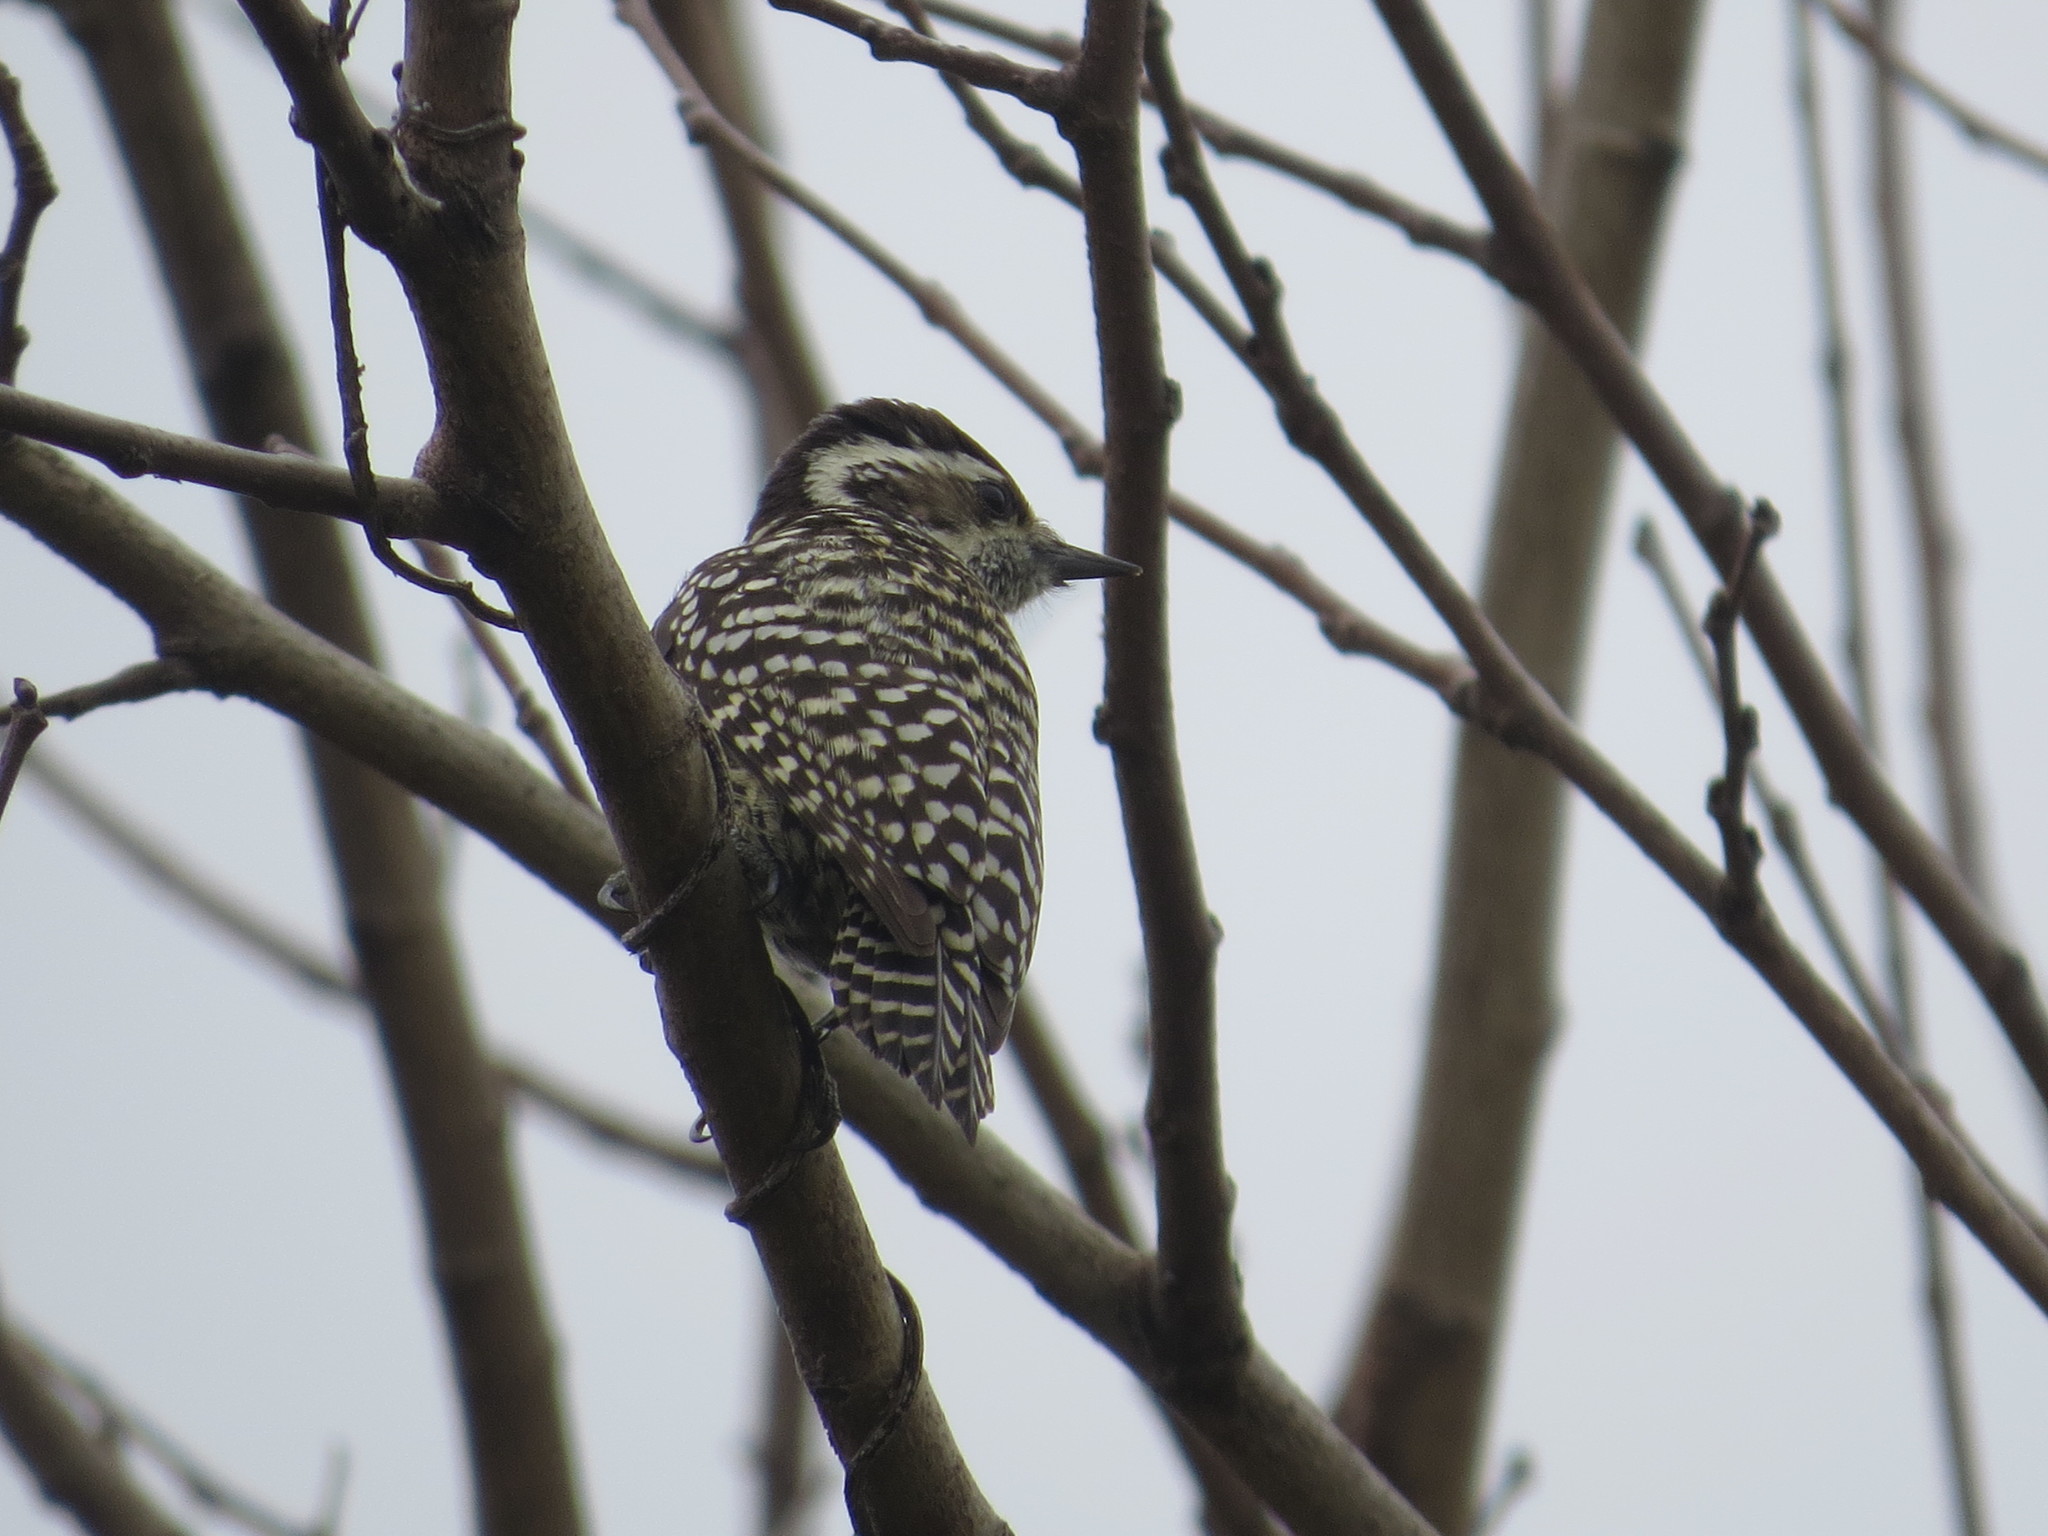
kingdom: Animalia
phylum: Chordata
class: Aves
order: Piciformes
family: Picidae
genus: Veniliornis
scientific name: Veniliornis mixtus
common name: Checkered woodpecker
